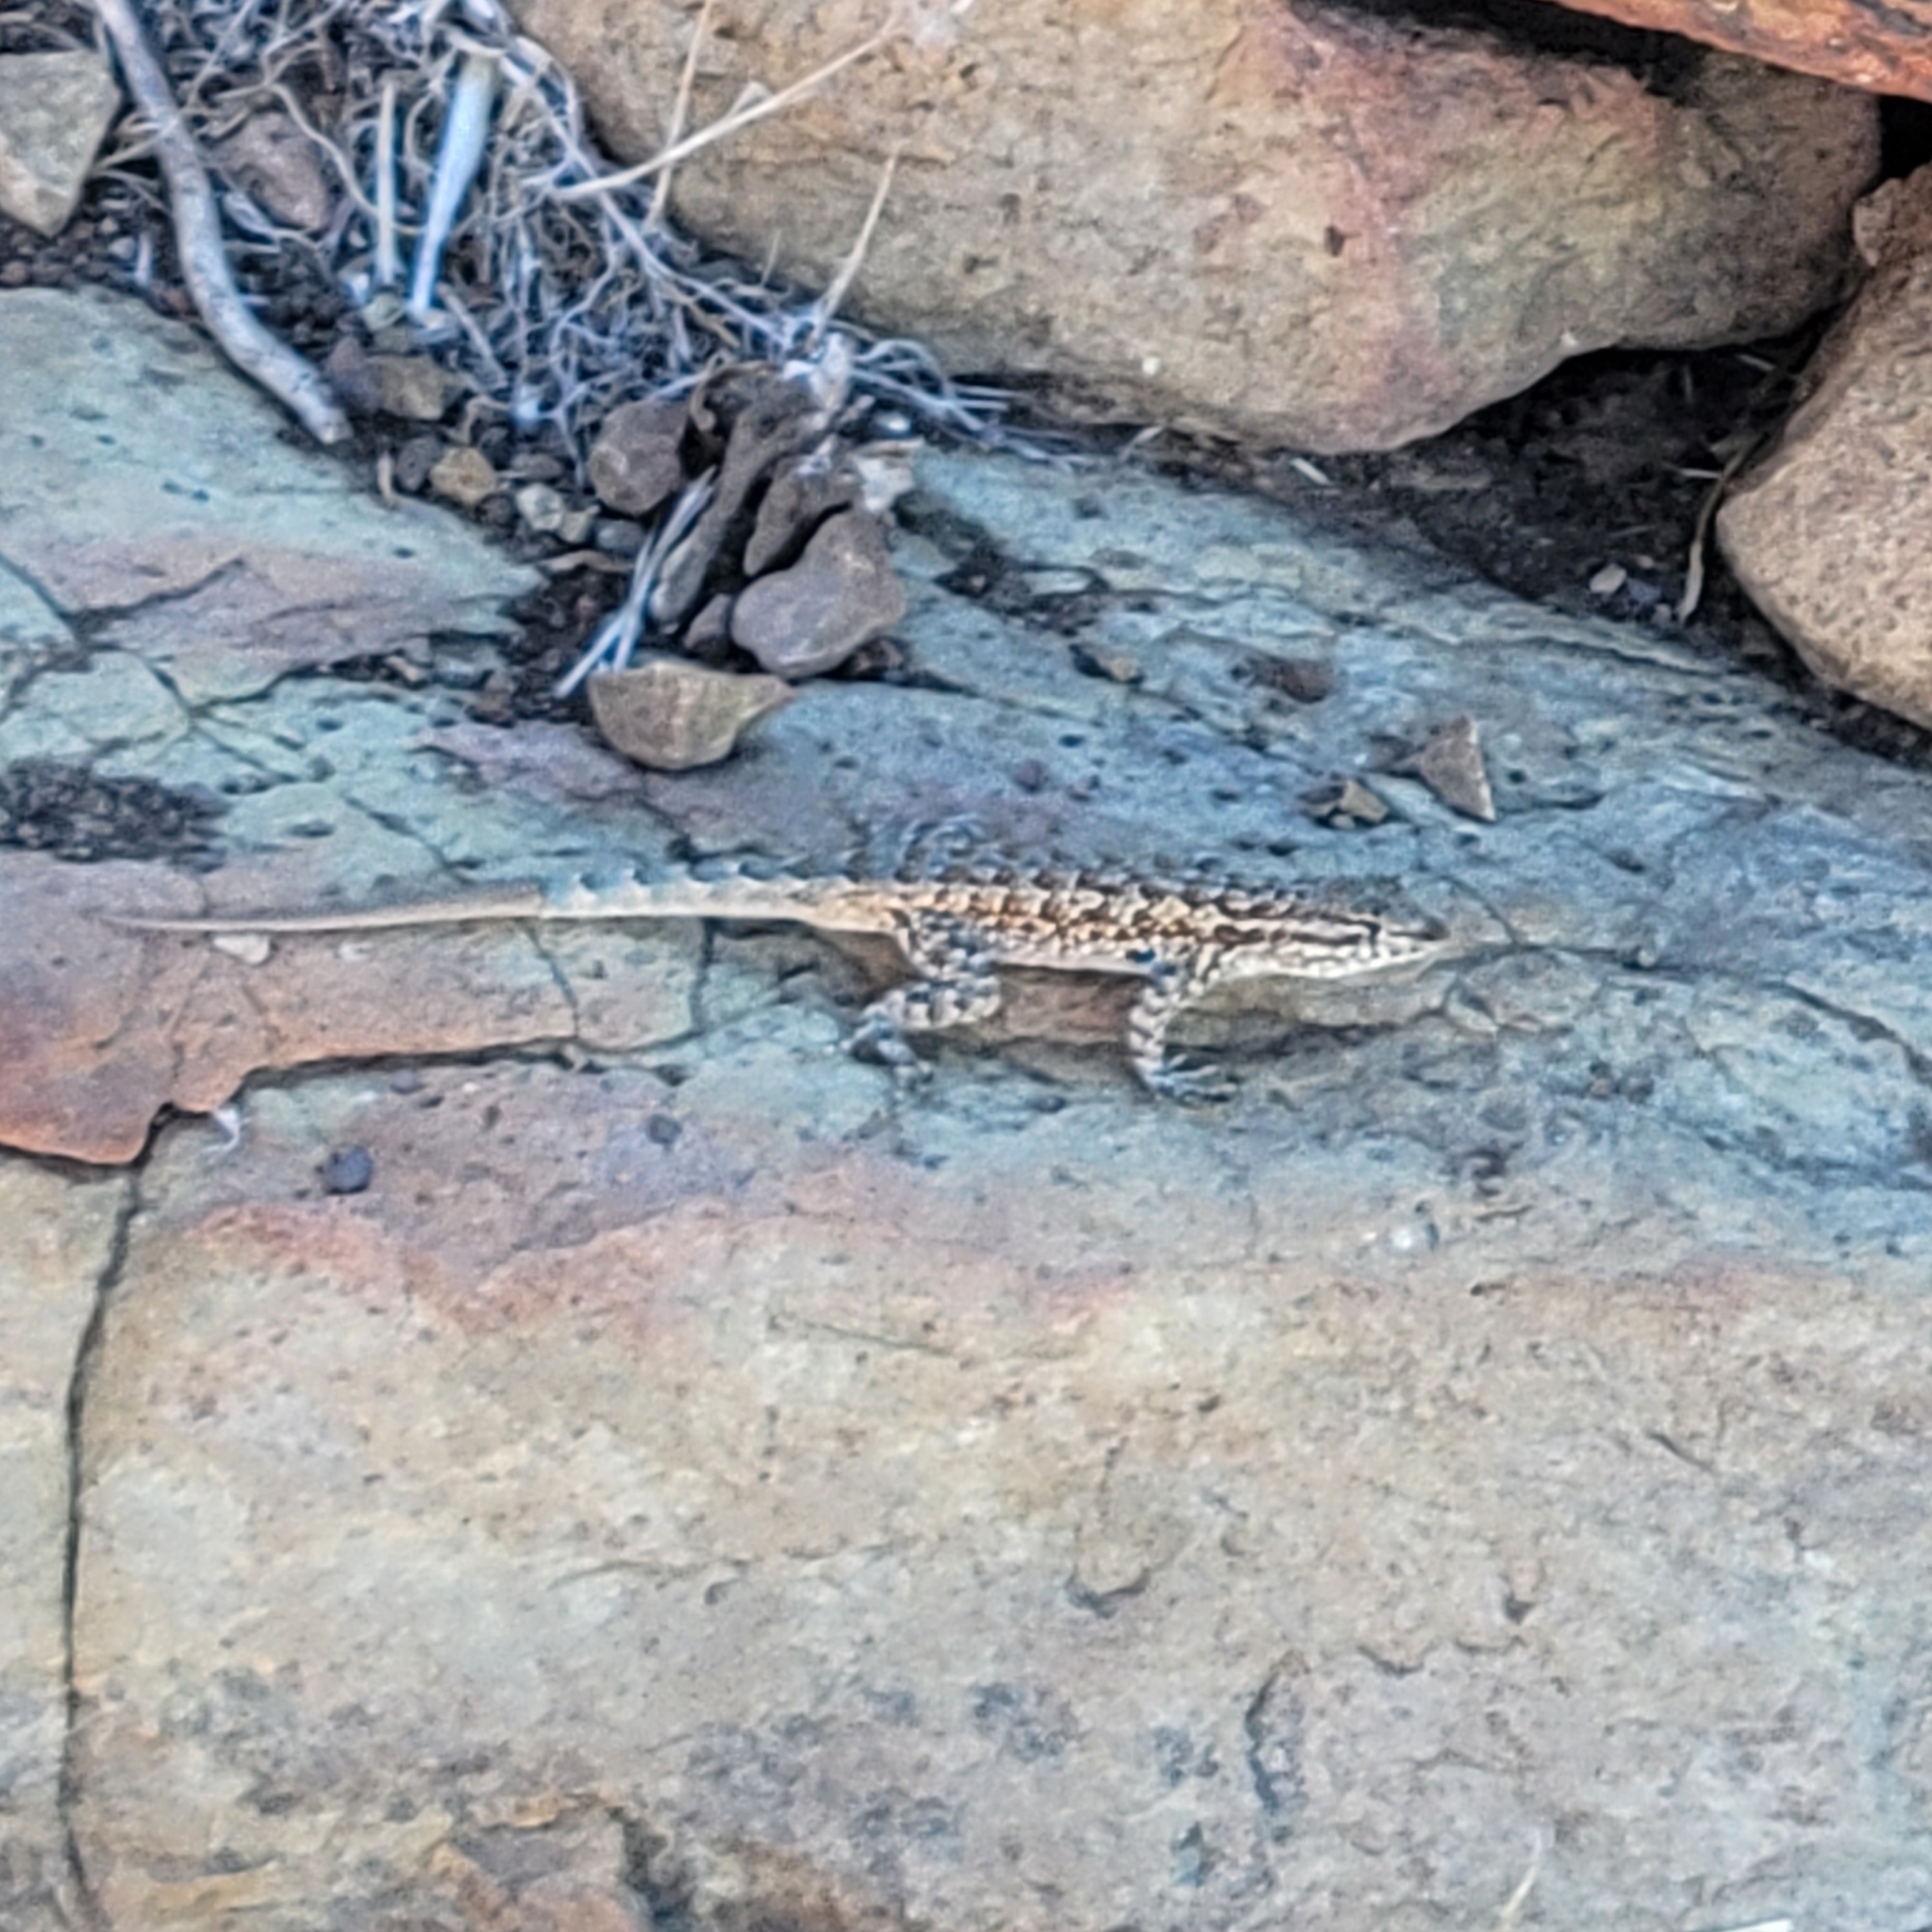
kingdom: Animalia
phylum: Chordata
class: Squamata
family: Phrynosomatidae
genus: Uta
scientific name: Uta stansburiana
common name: Side-blotched lizard
